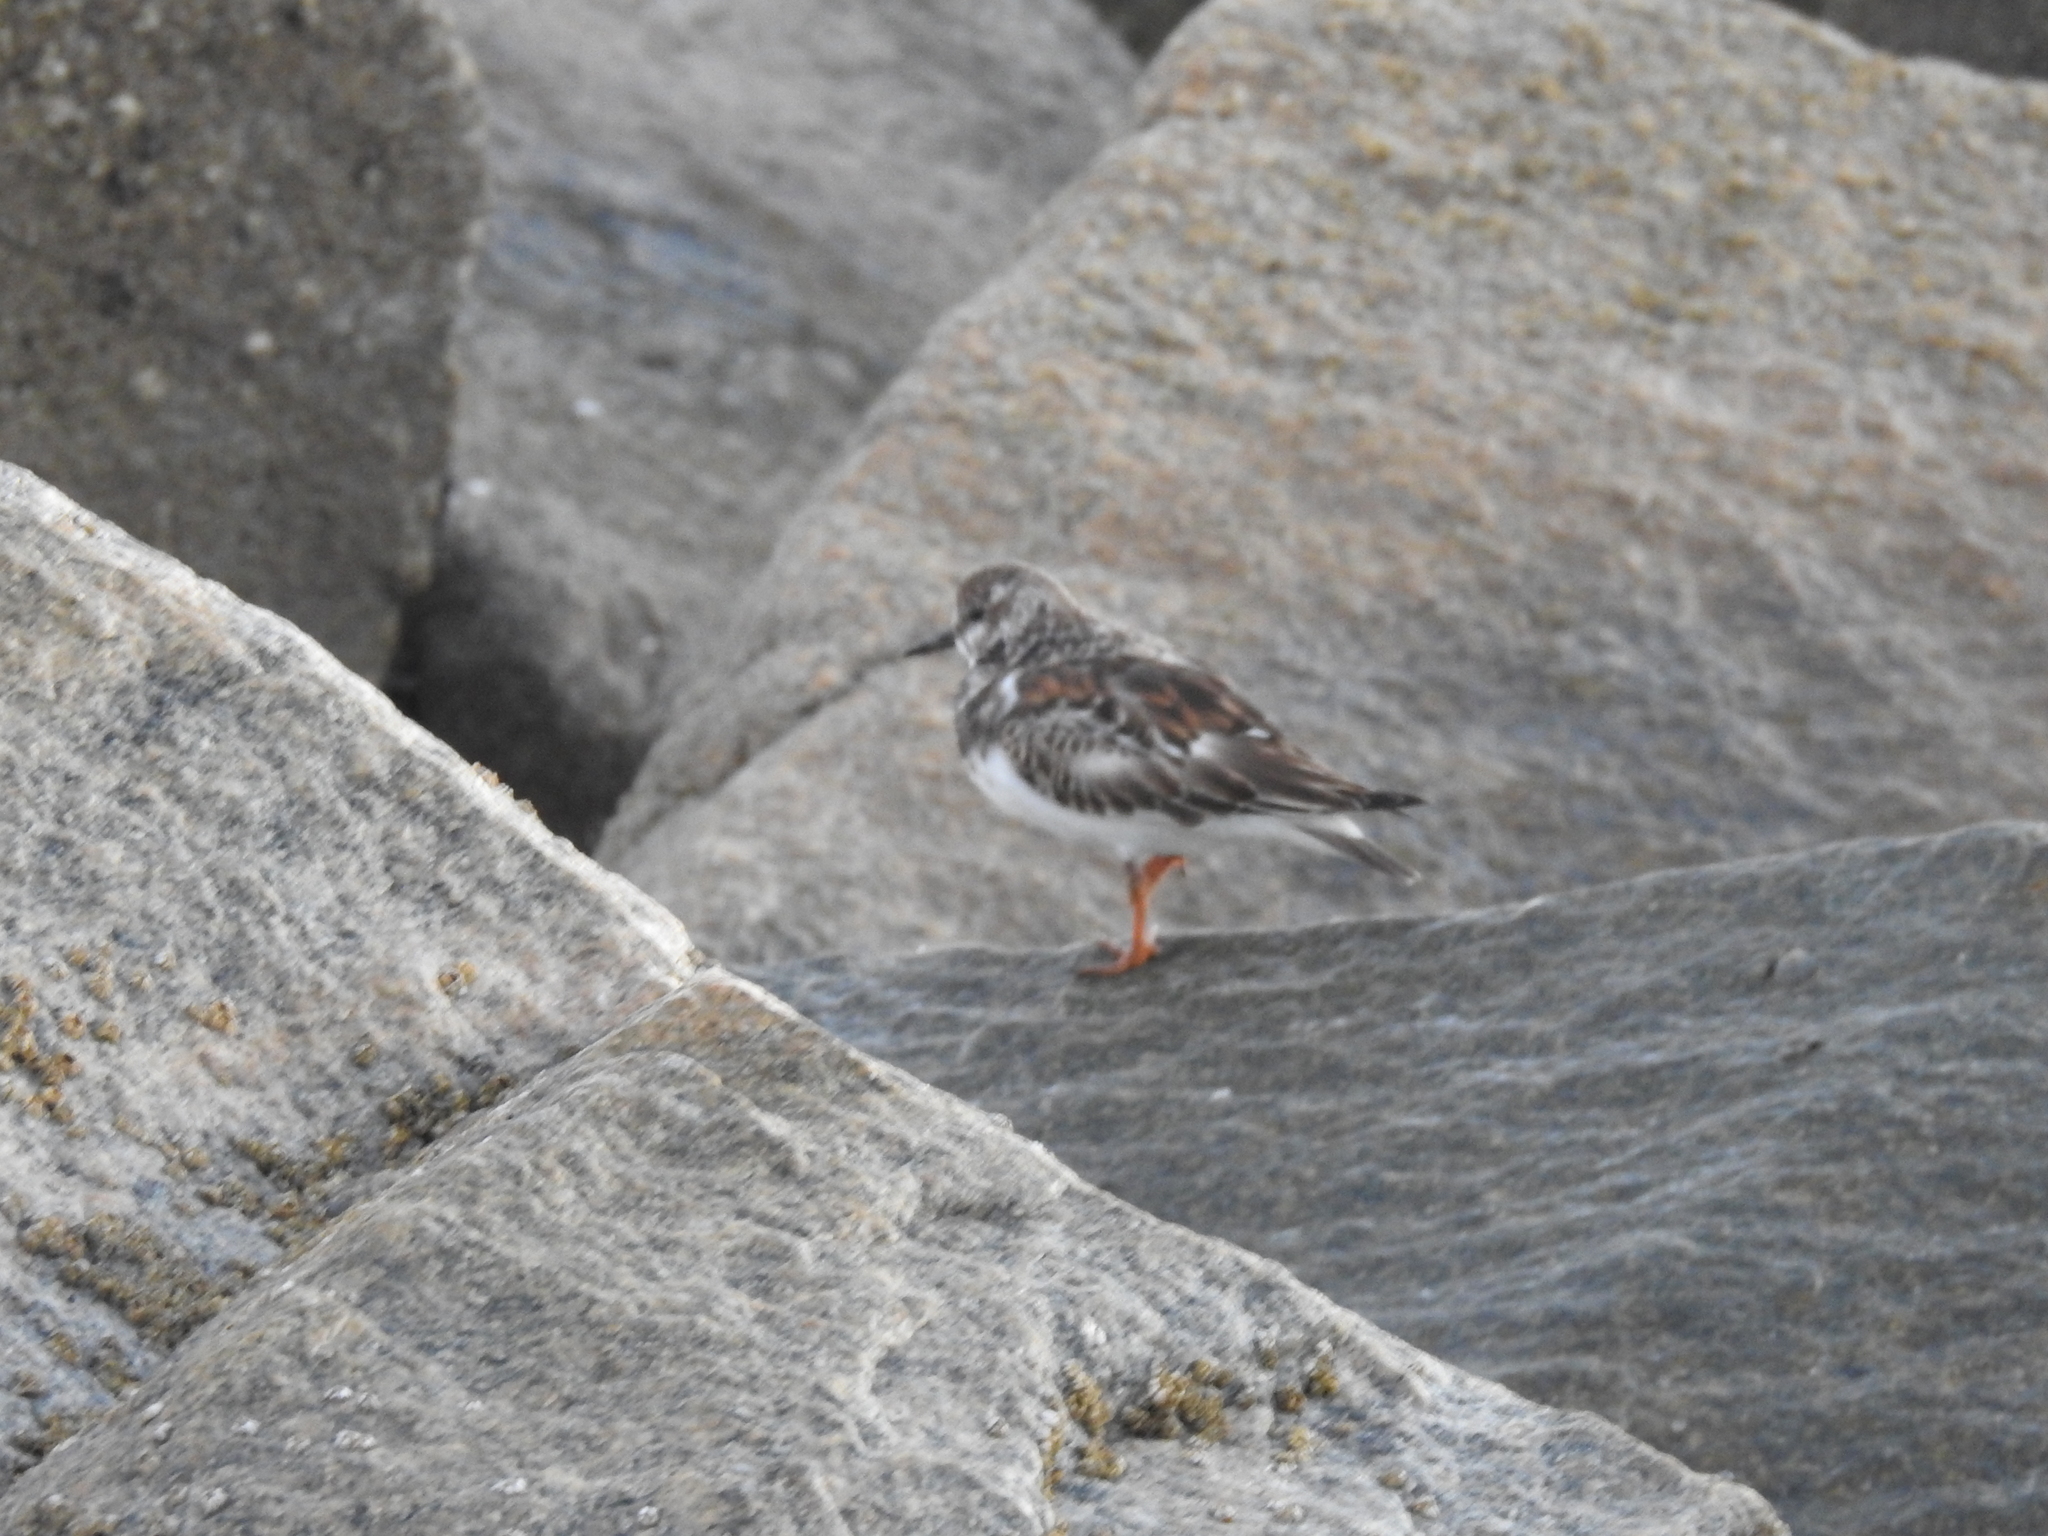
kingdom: Animalia
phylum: Chordata
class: Aves
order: Charadriiformes
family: Scolopacidae
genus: Arenaria
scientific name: Arenaria interpres
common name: Ruddy turnstone
